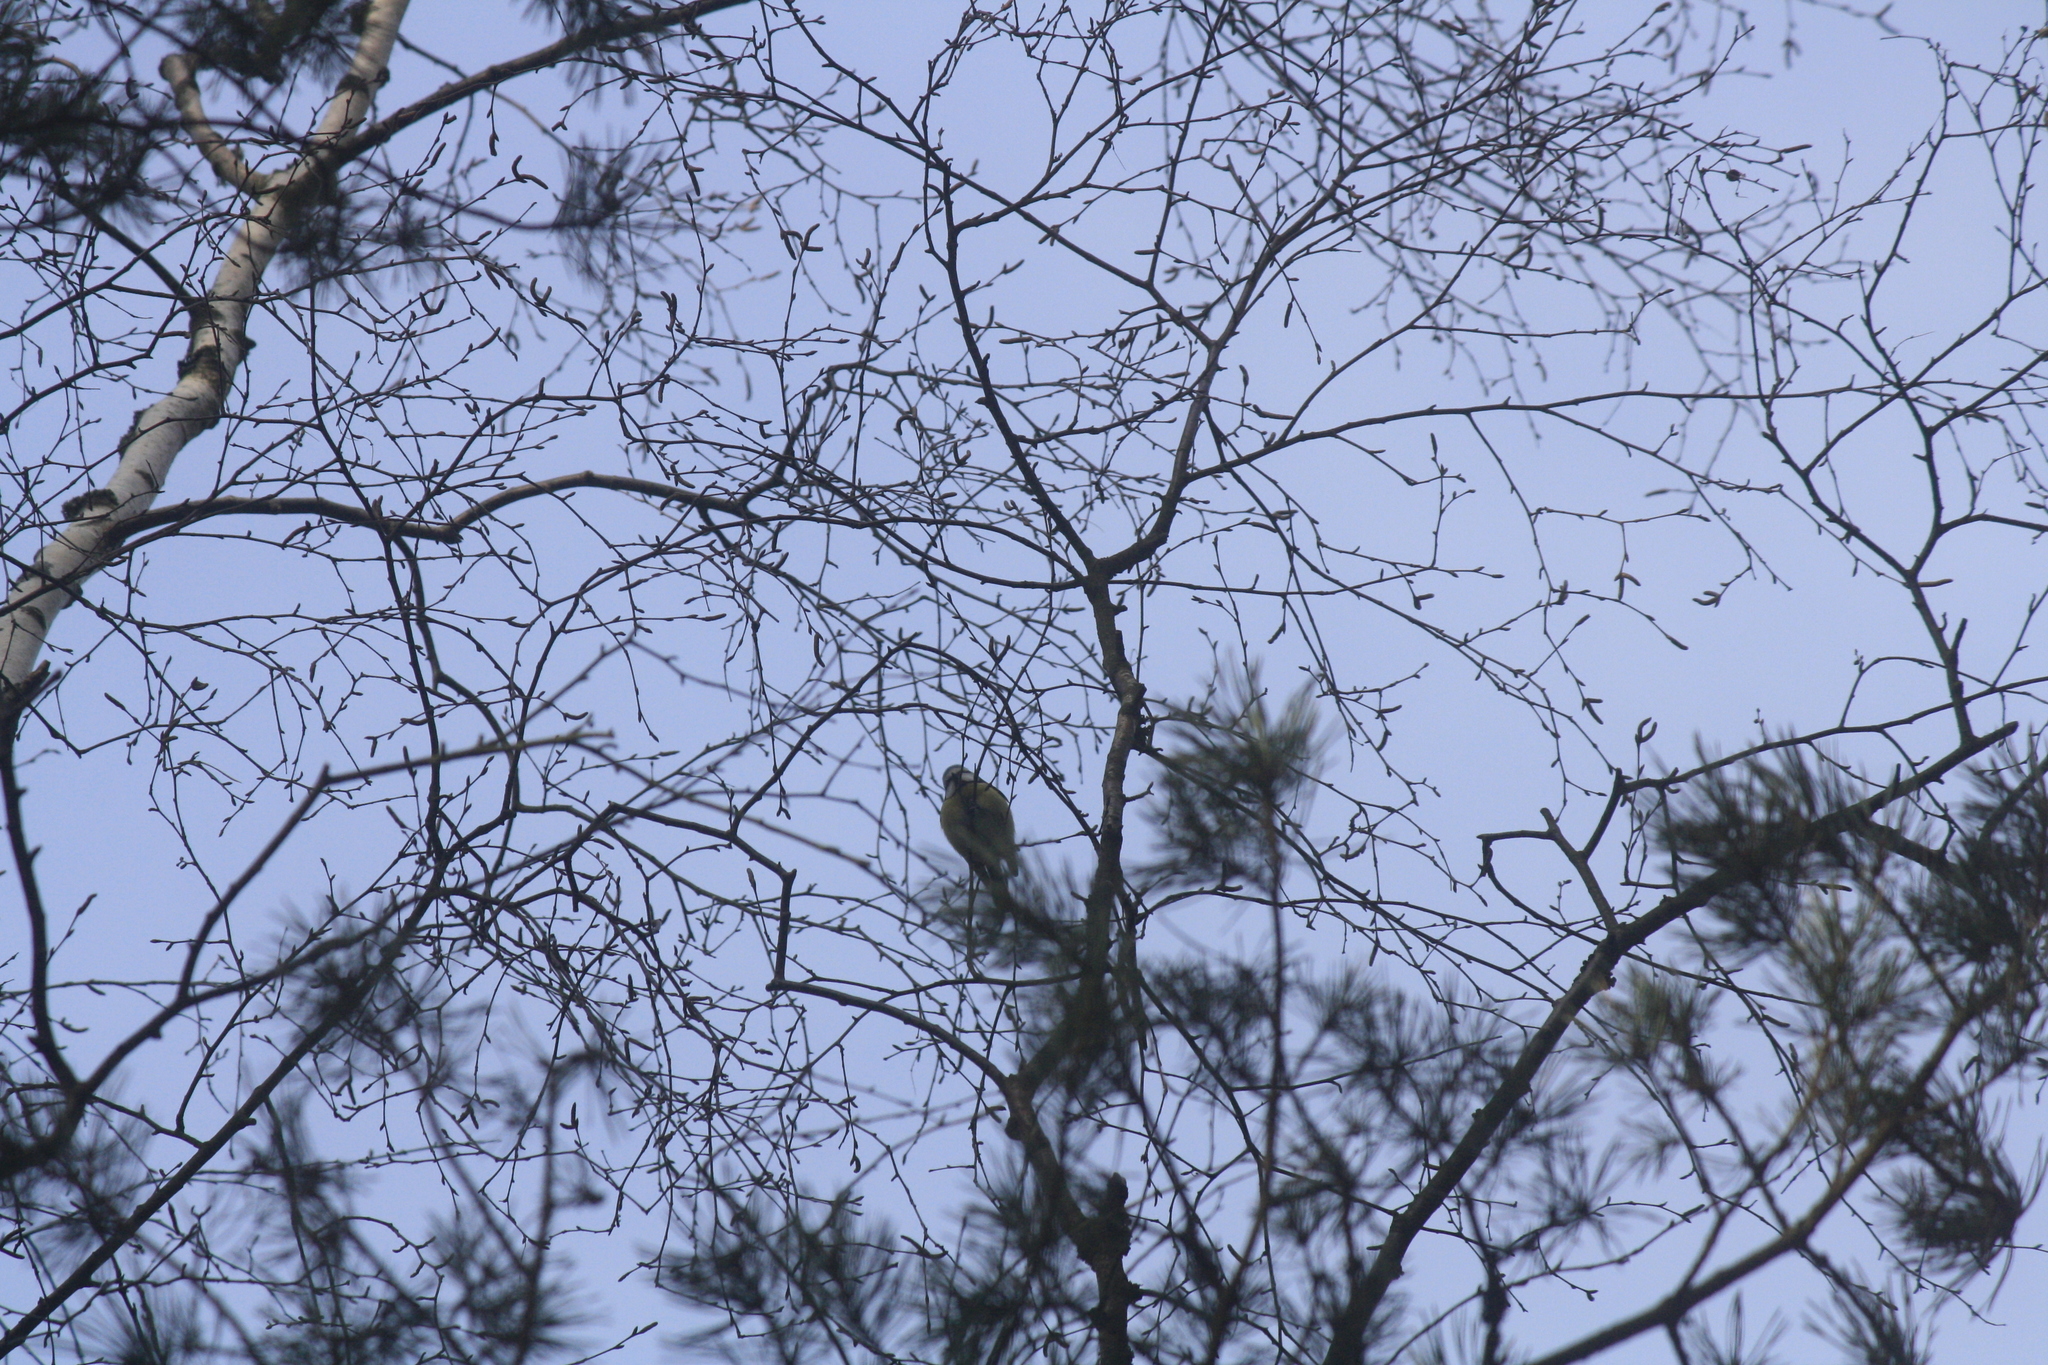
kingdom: Animalia
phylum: Chordata
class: Aves
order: Passeriformes
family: Paridae
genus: Cyanistes
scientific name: Cyanistes caeruleus
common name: Eurasian blue tit
